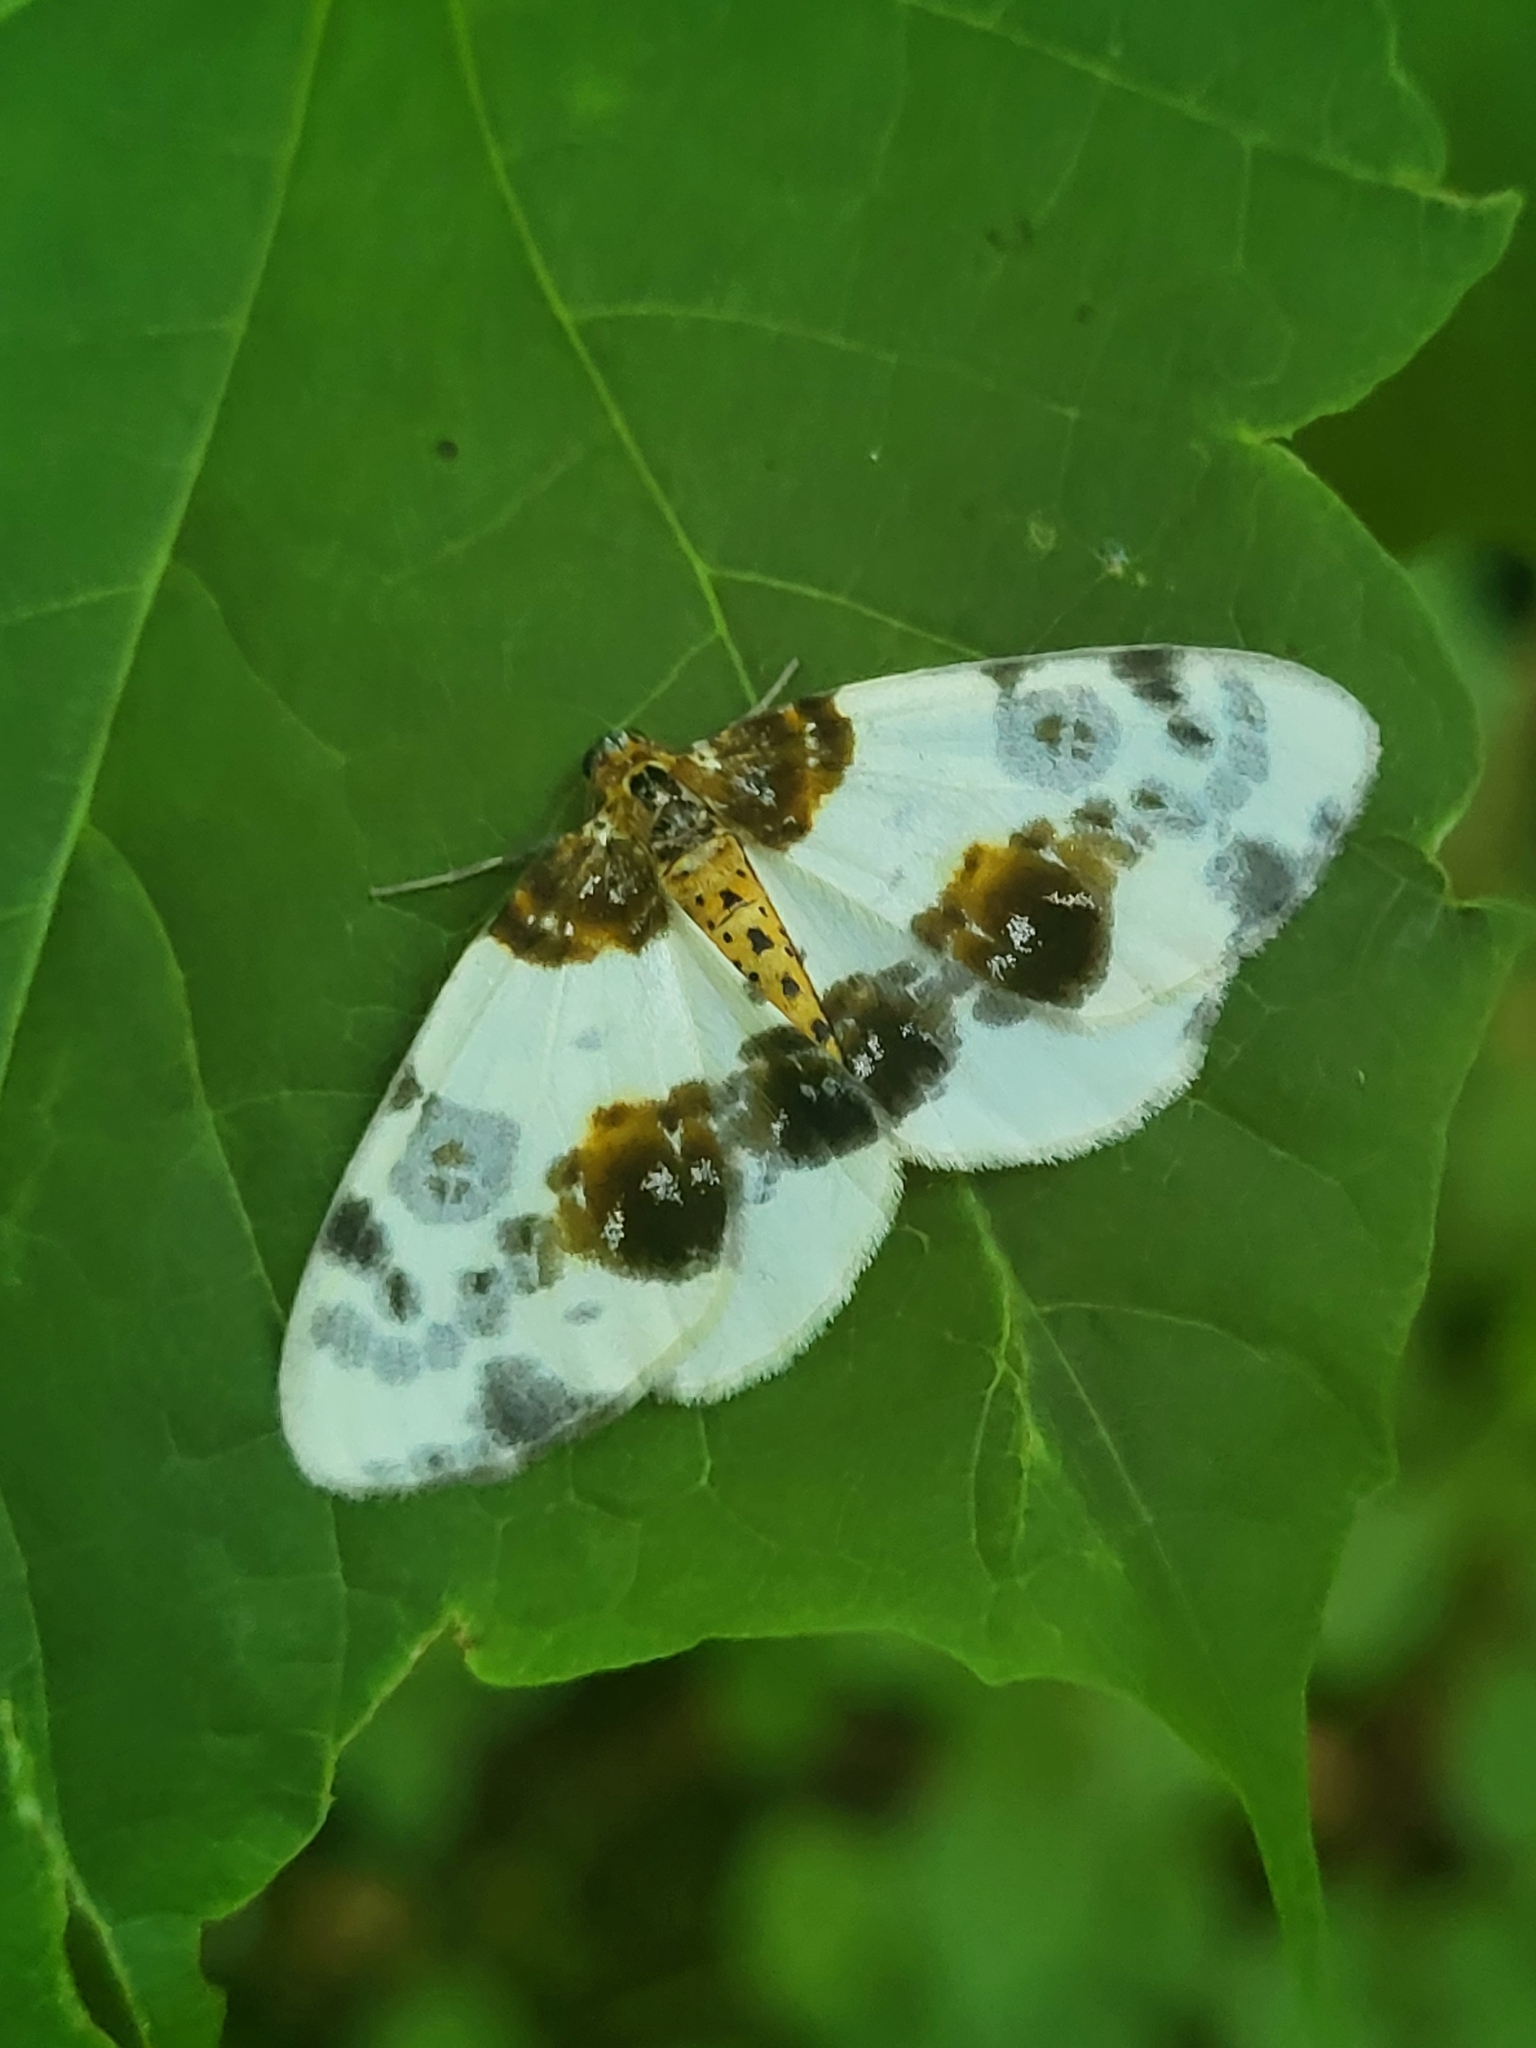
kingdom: Animalia
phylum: Arthropoda
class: Insecta
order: Lepidoptera
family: Geometridae
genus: Abraxas
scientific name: Abraxas sylvata
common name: Clouded magpie
